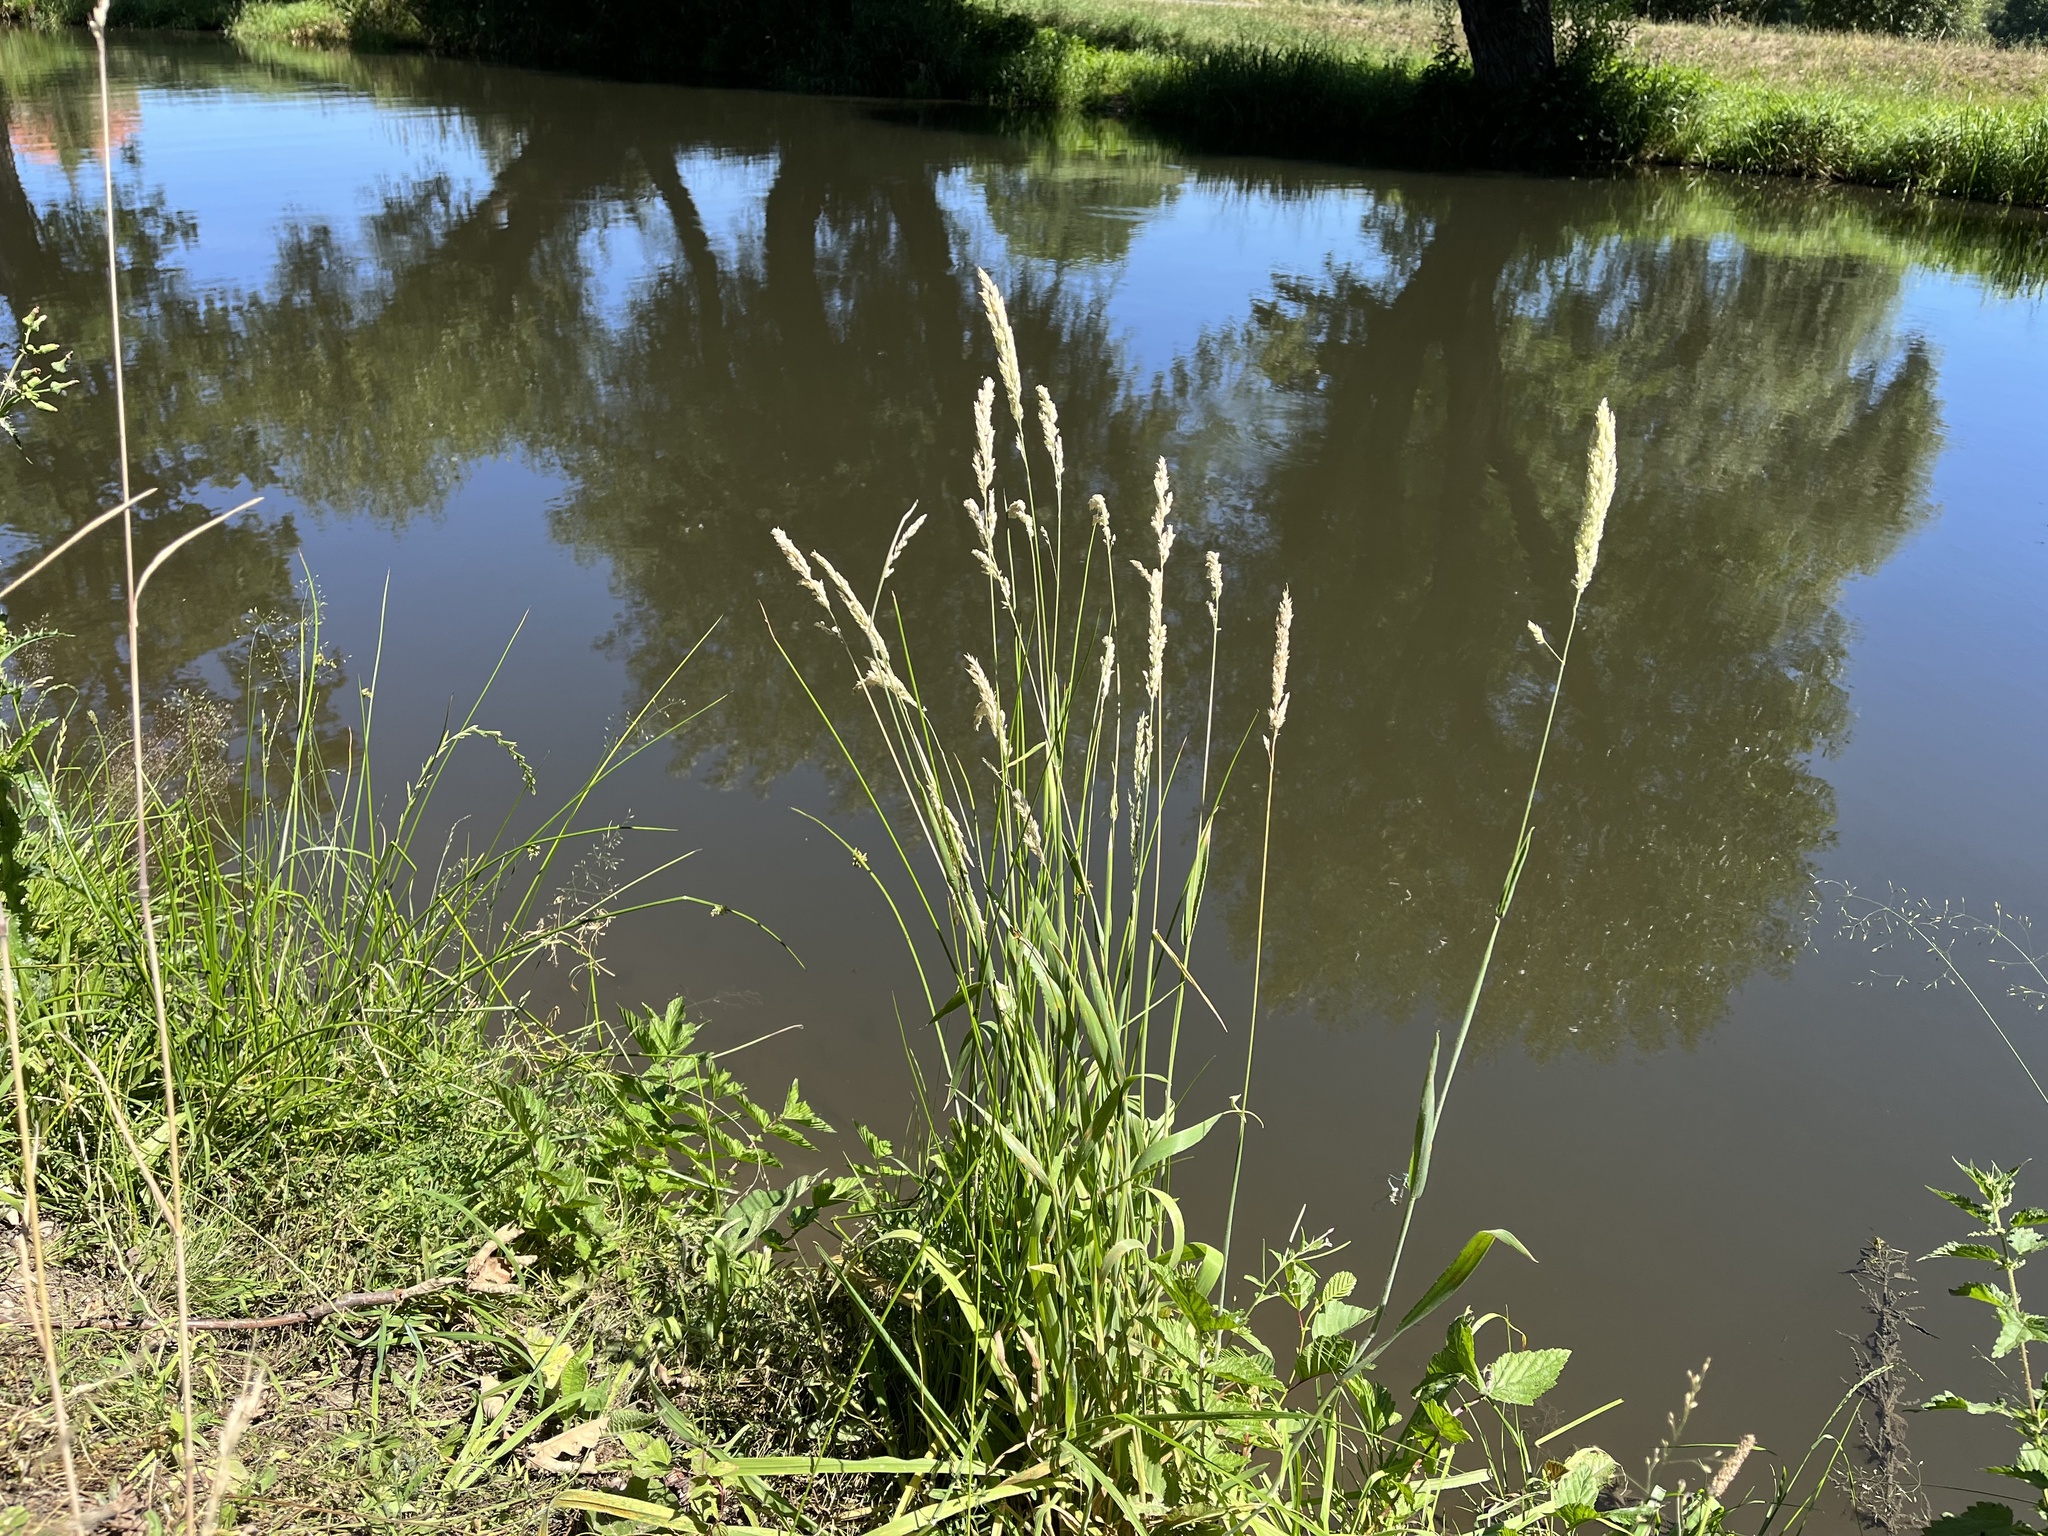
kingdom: Plantae
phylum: Tracheophyta
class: Liliopsida
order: Poales
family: Poaceae
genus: Phalaris
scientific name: Phalaris arundinacea
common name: Reed canary-grass
